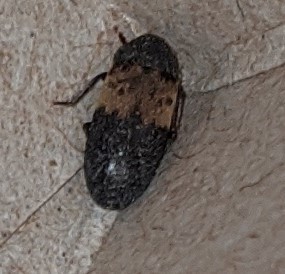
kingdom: Animalia
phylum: Arthropoda
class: Insecta
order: Coleoptera
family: Dermestidae
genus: Dermestes
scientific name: Dermestes lardarius
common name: Larder beetle
